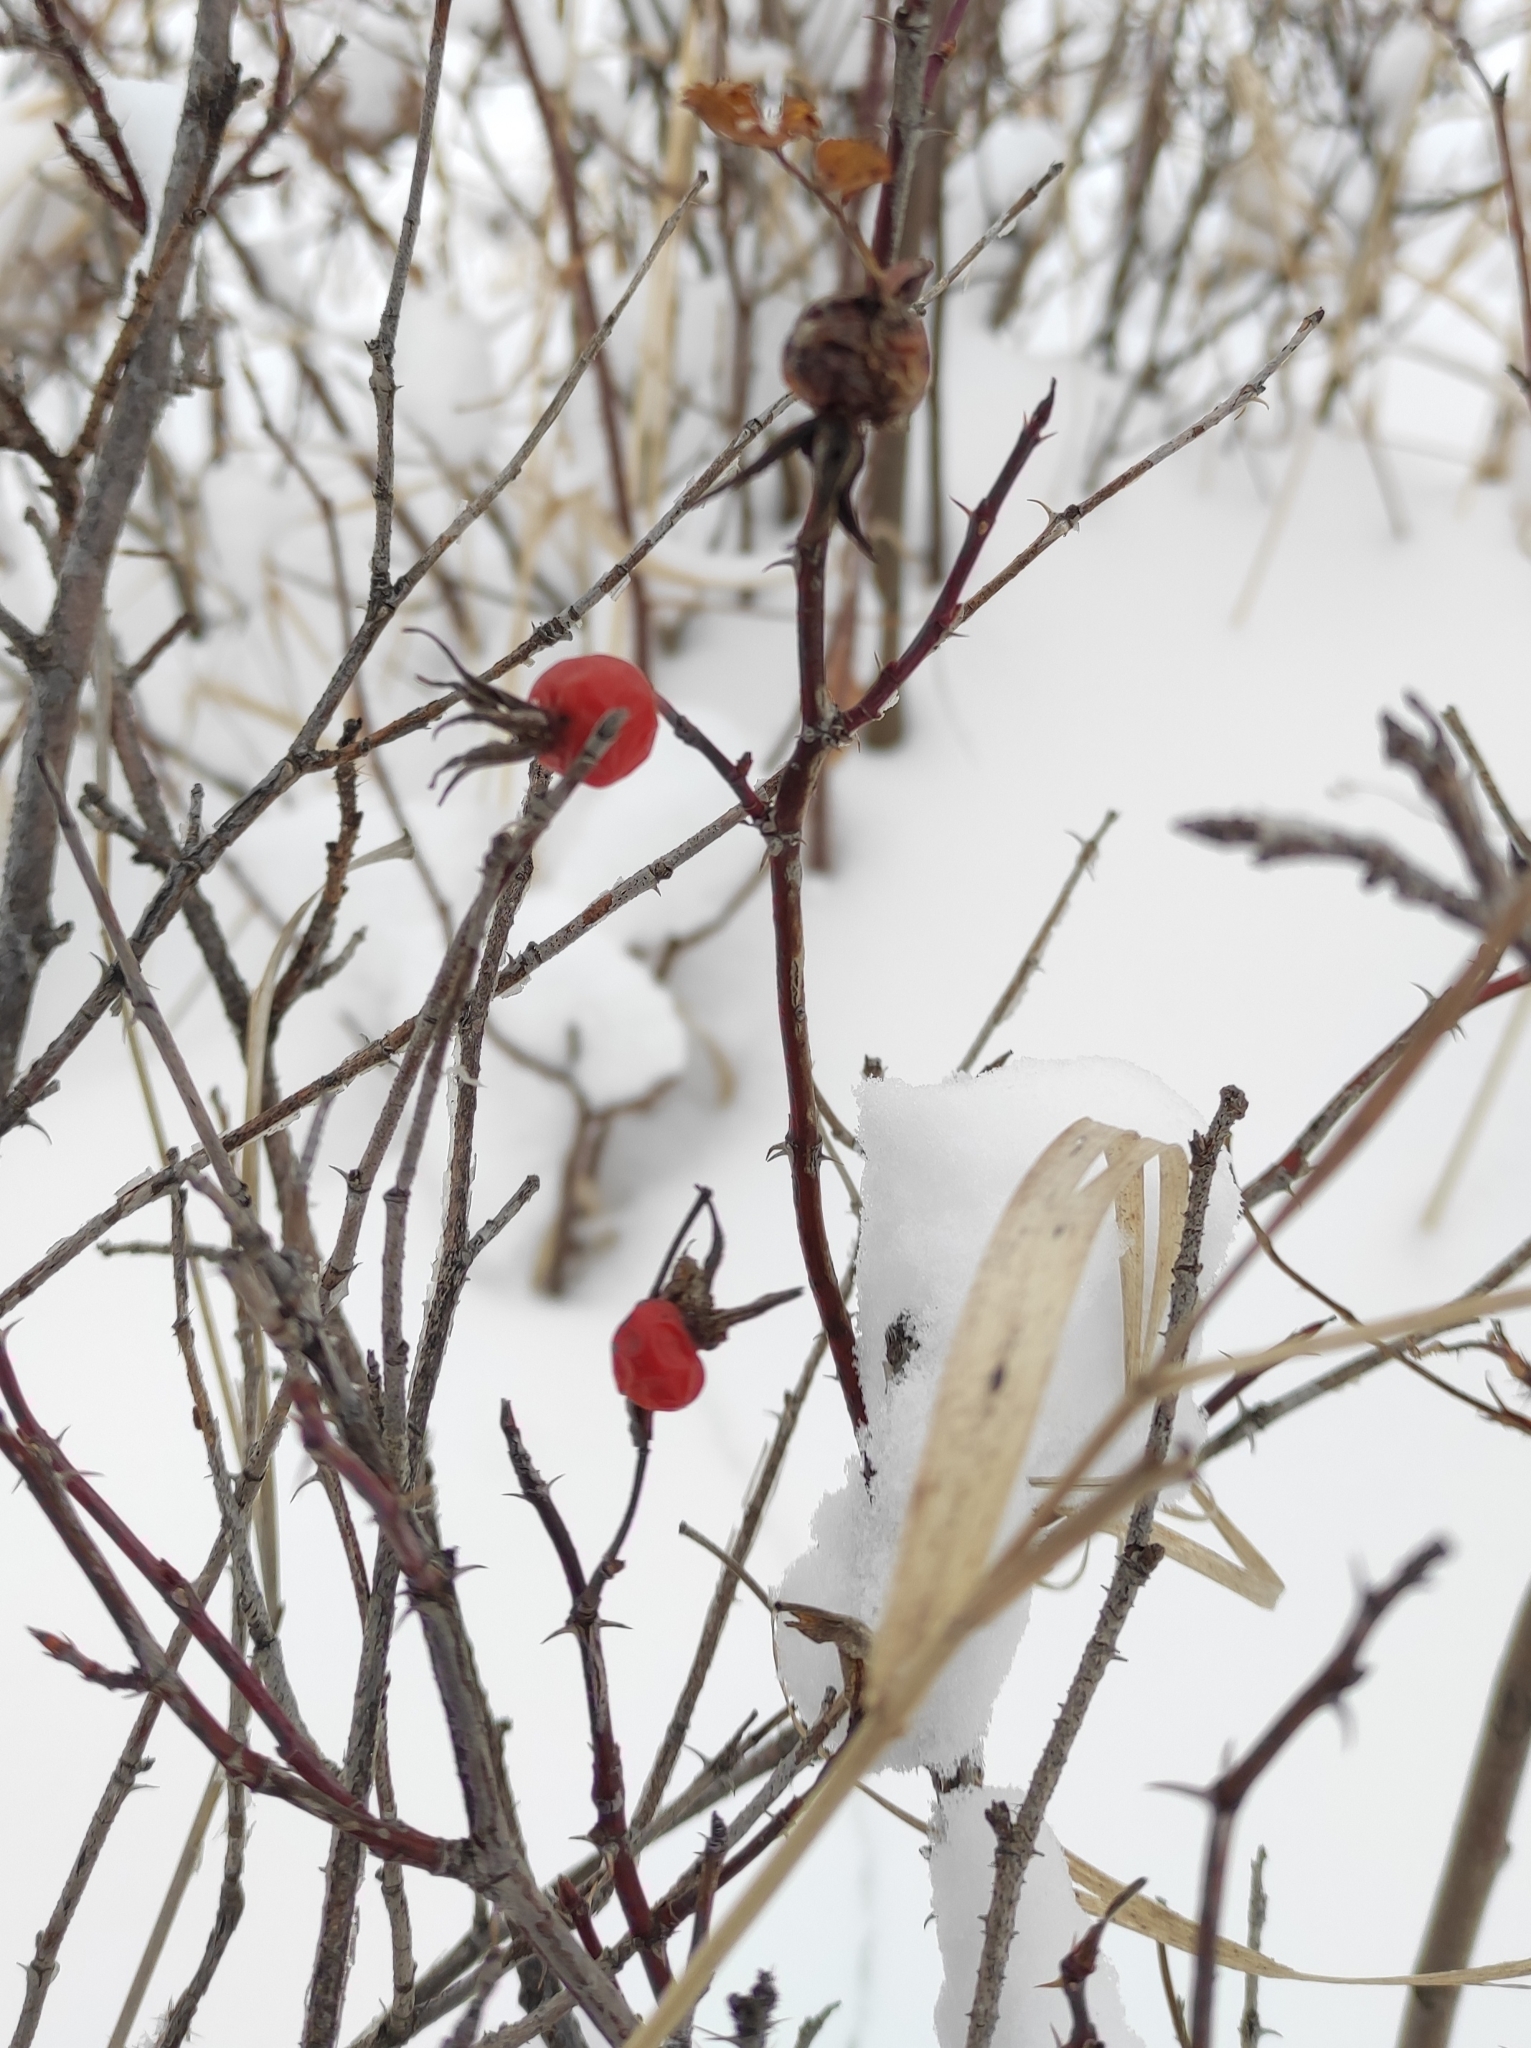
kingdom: Plantae
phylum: Tracheophyta
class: Magnoliopsida
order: Rosales
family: Rosaceae
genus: Rosa
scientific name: Rosa
